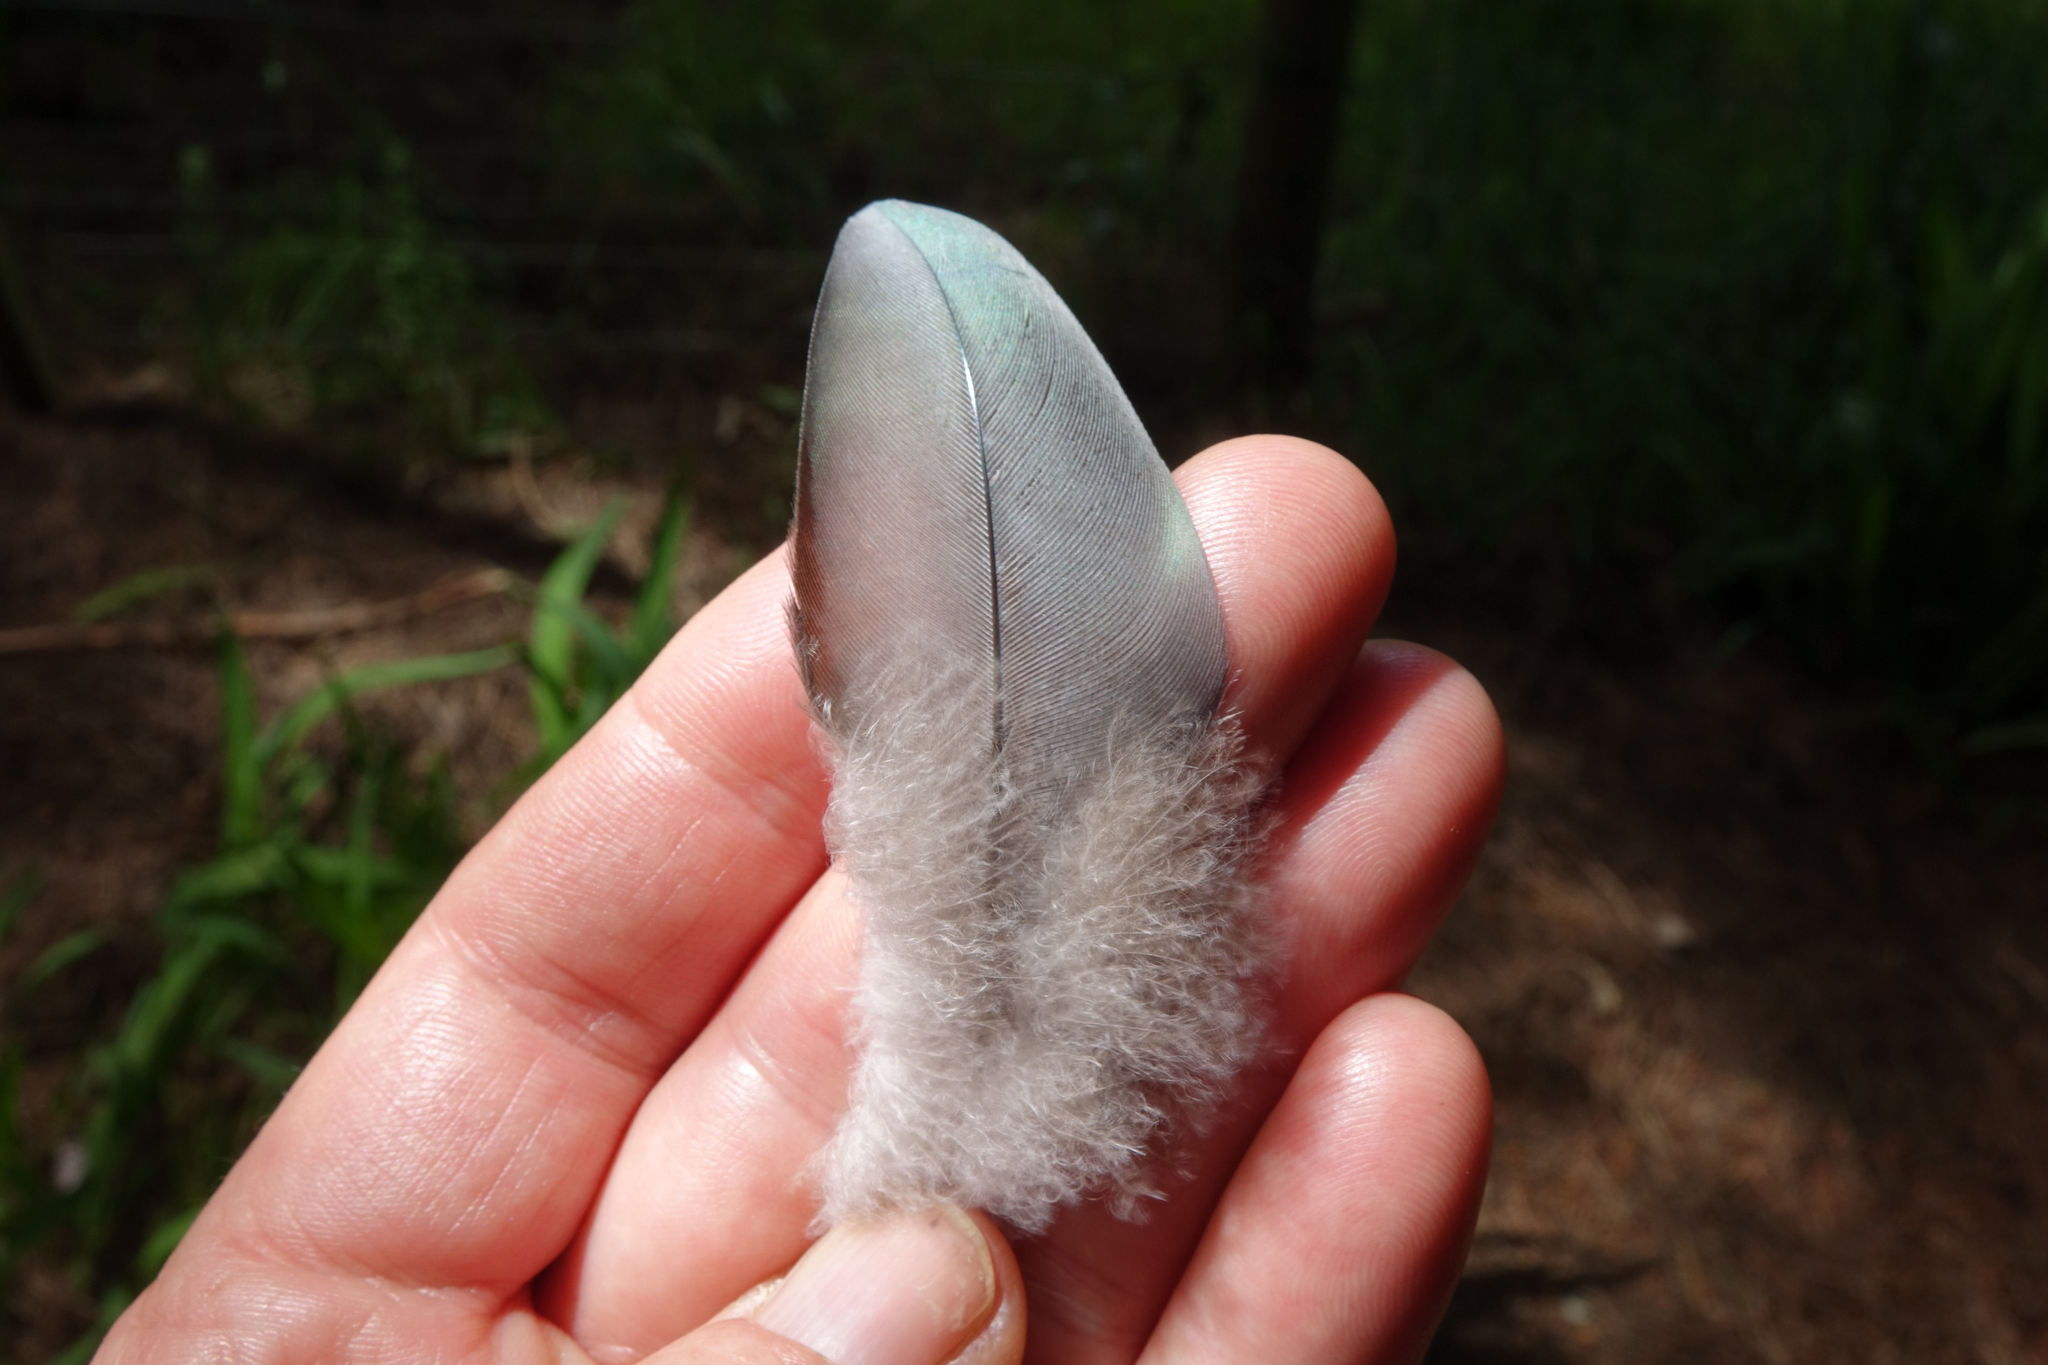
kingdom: Animalia
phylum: Chordata
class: Aves
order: Columbiformes
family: Columbidae
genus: Hemiphaga
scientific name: Hemiphaga novaeseelandiae
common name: New zealand pigeon
